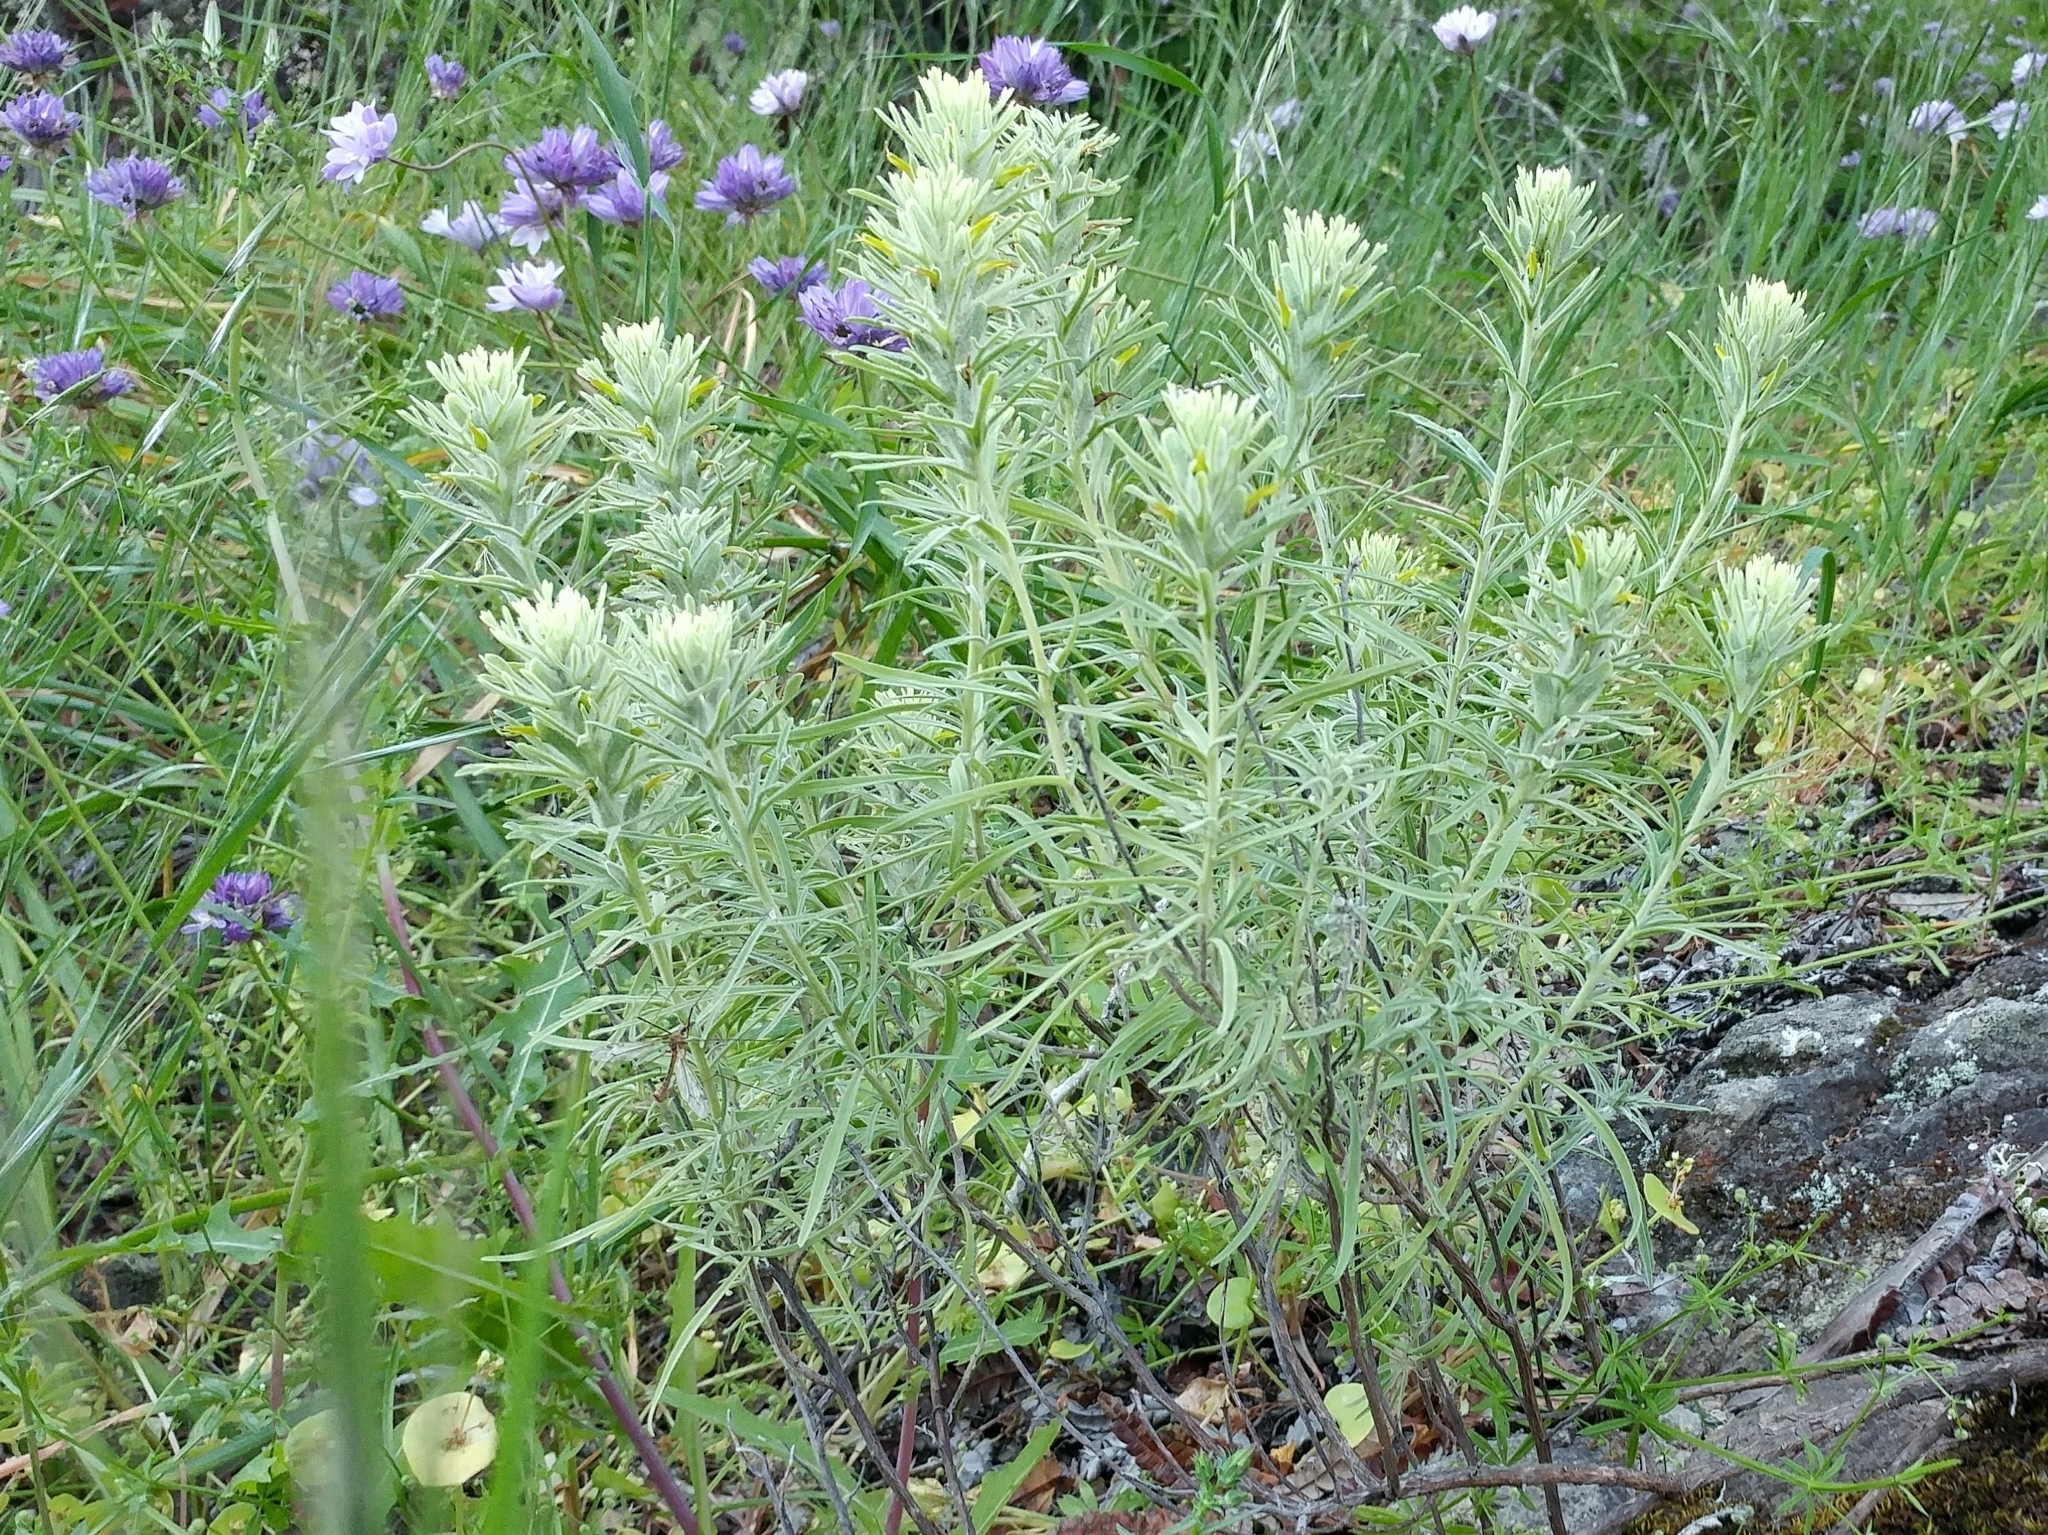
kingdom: Plantae
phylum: Tracheophyta
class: Magnoliopsida
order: Lamiales
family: Orobanchaceae
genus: Castilleja
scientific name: Castilleja grisea
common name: San clemente island indian paintbrush
